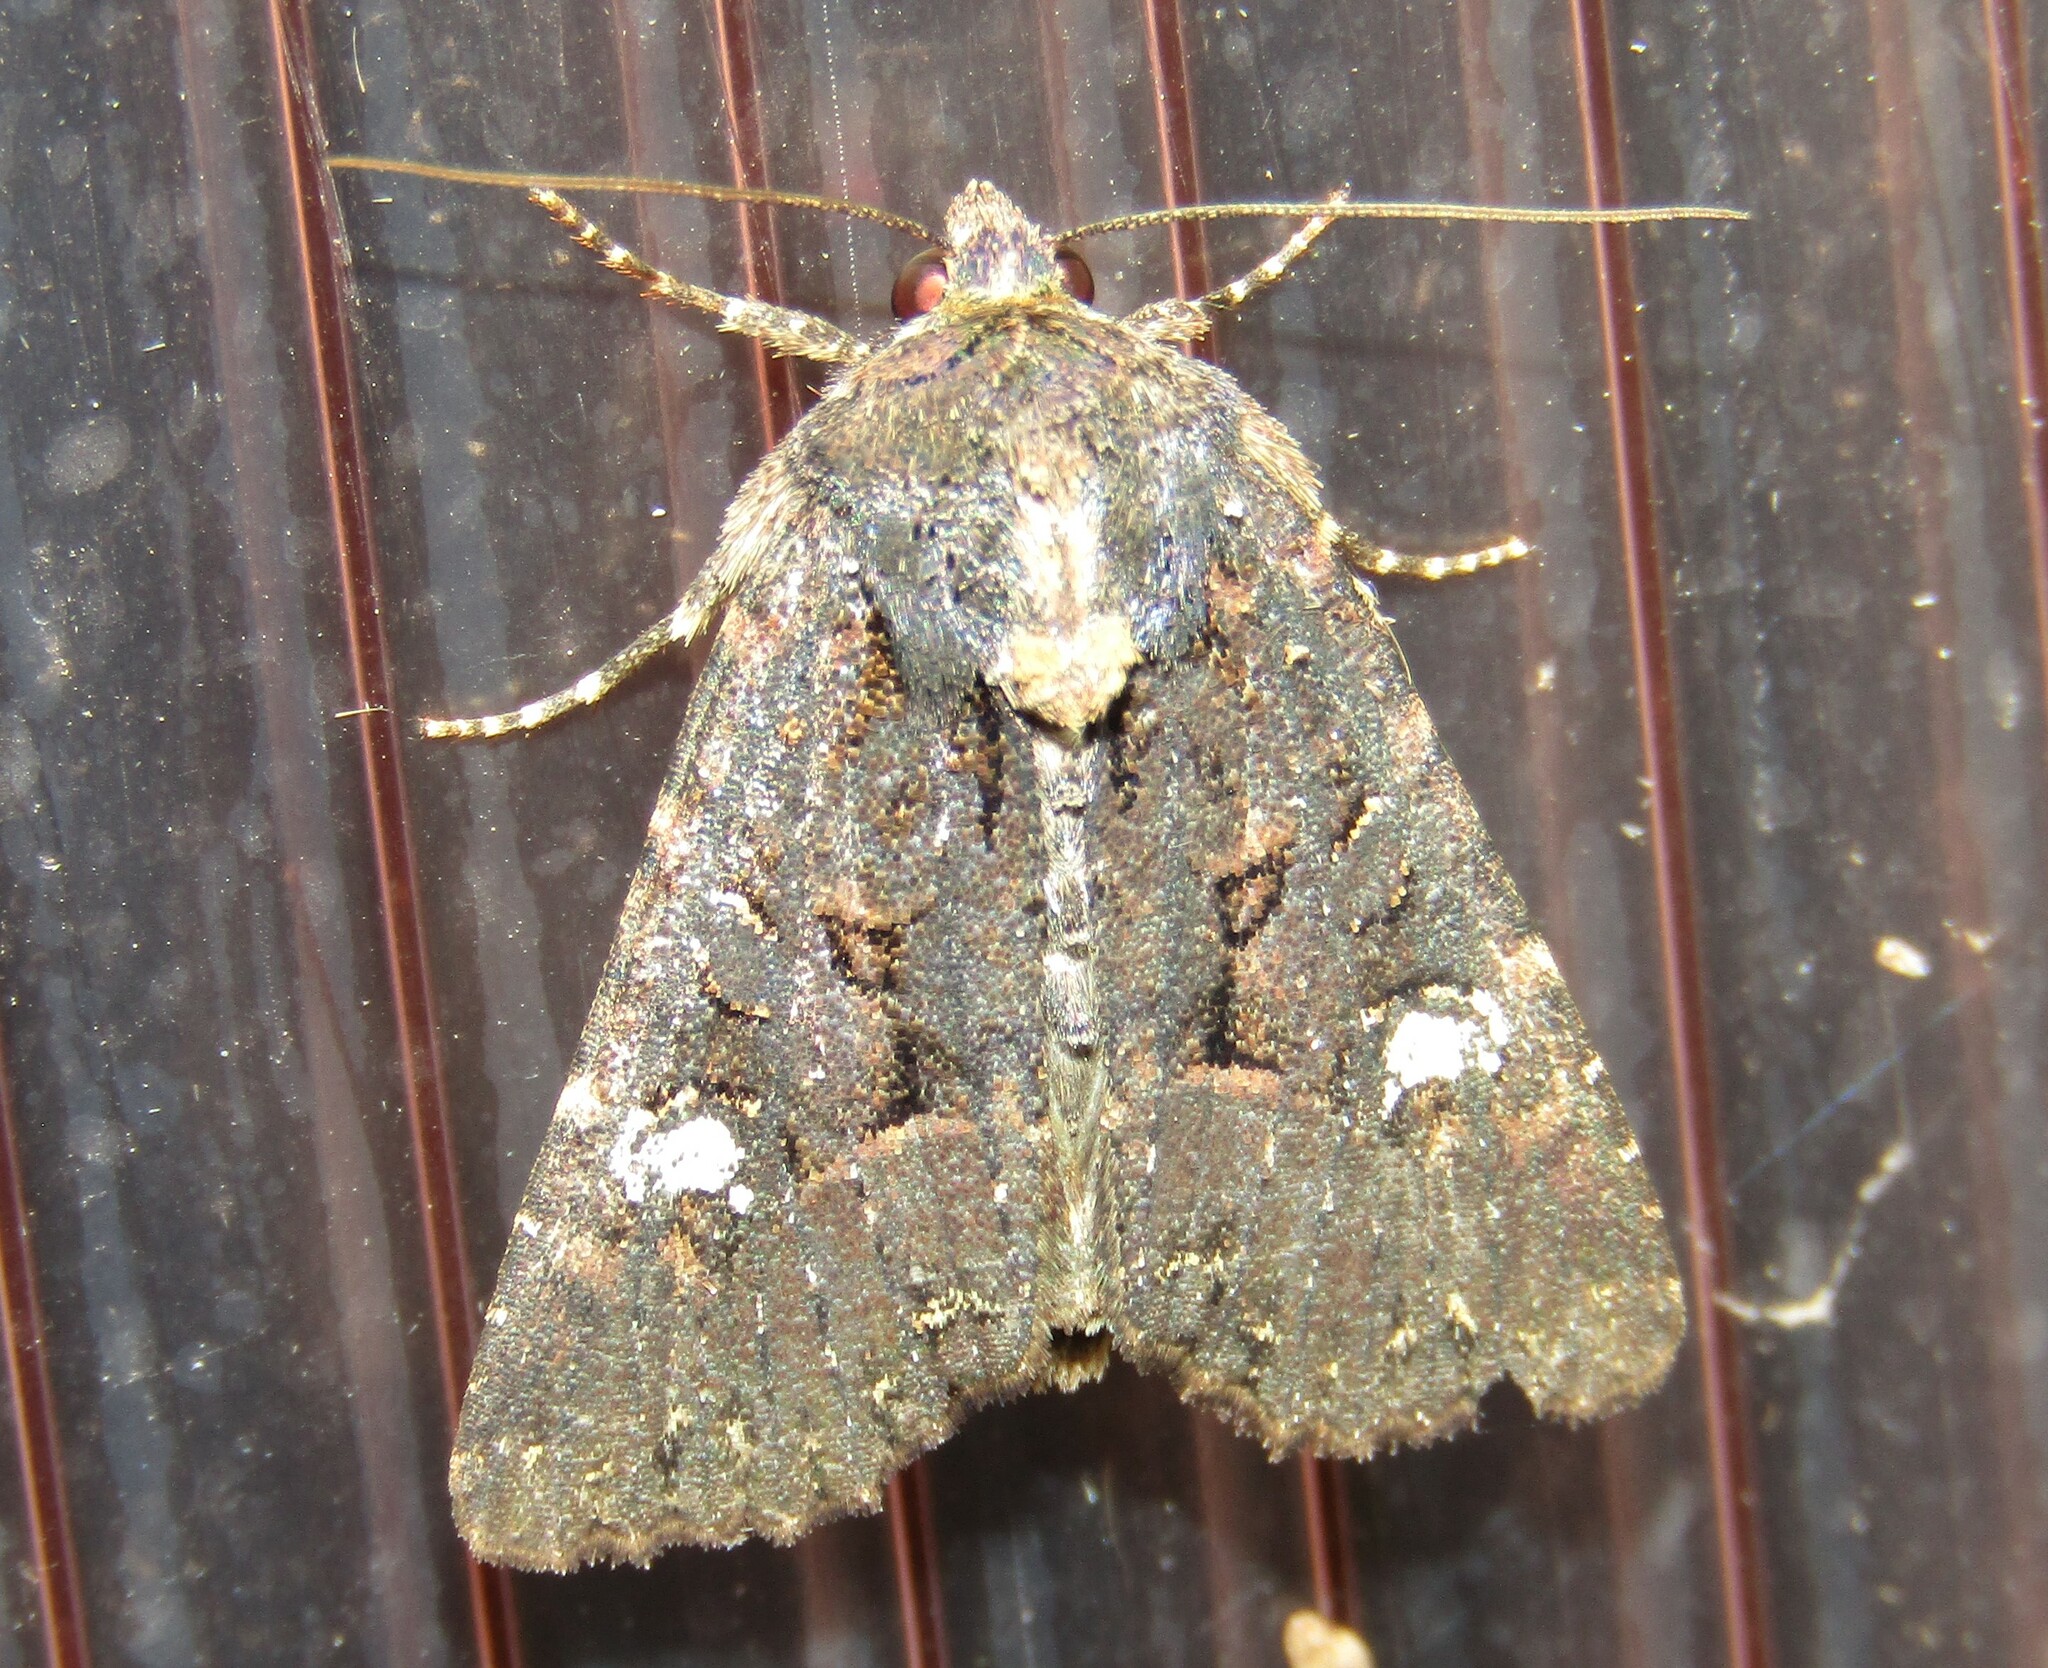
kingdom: Animalia
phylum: Arthropoda
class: Insecta
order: Lepidoptera
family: Noctuidae
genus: Mesapamea
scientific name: Mesapamea
